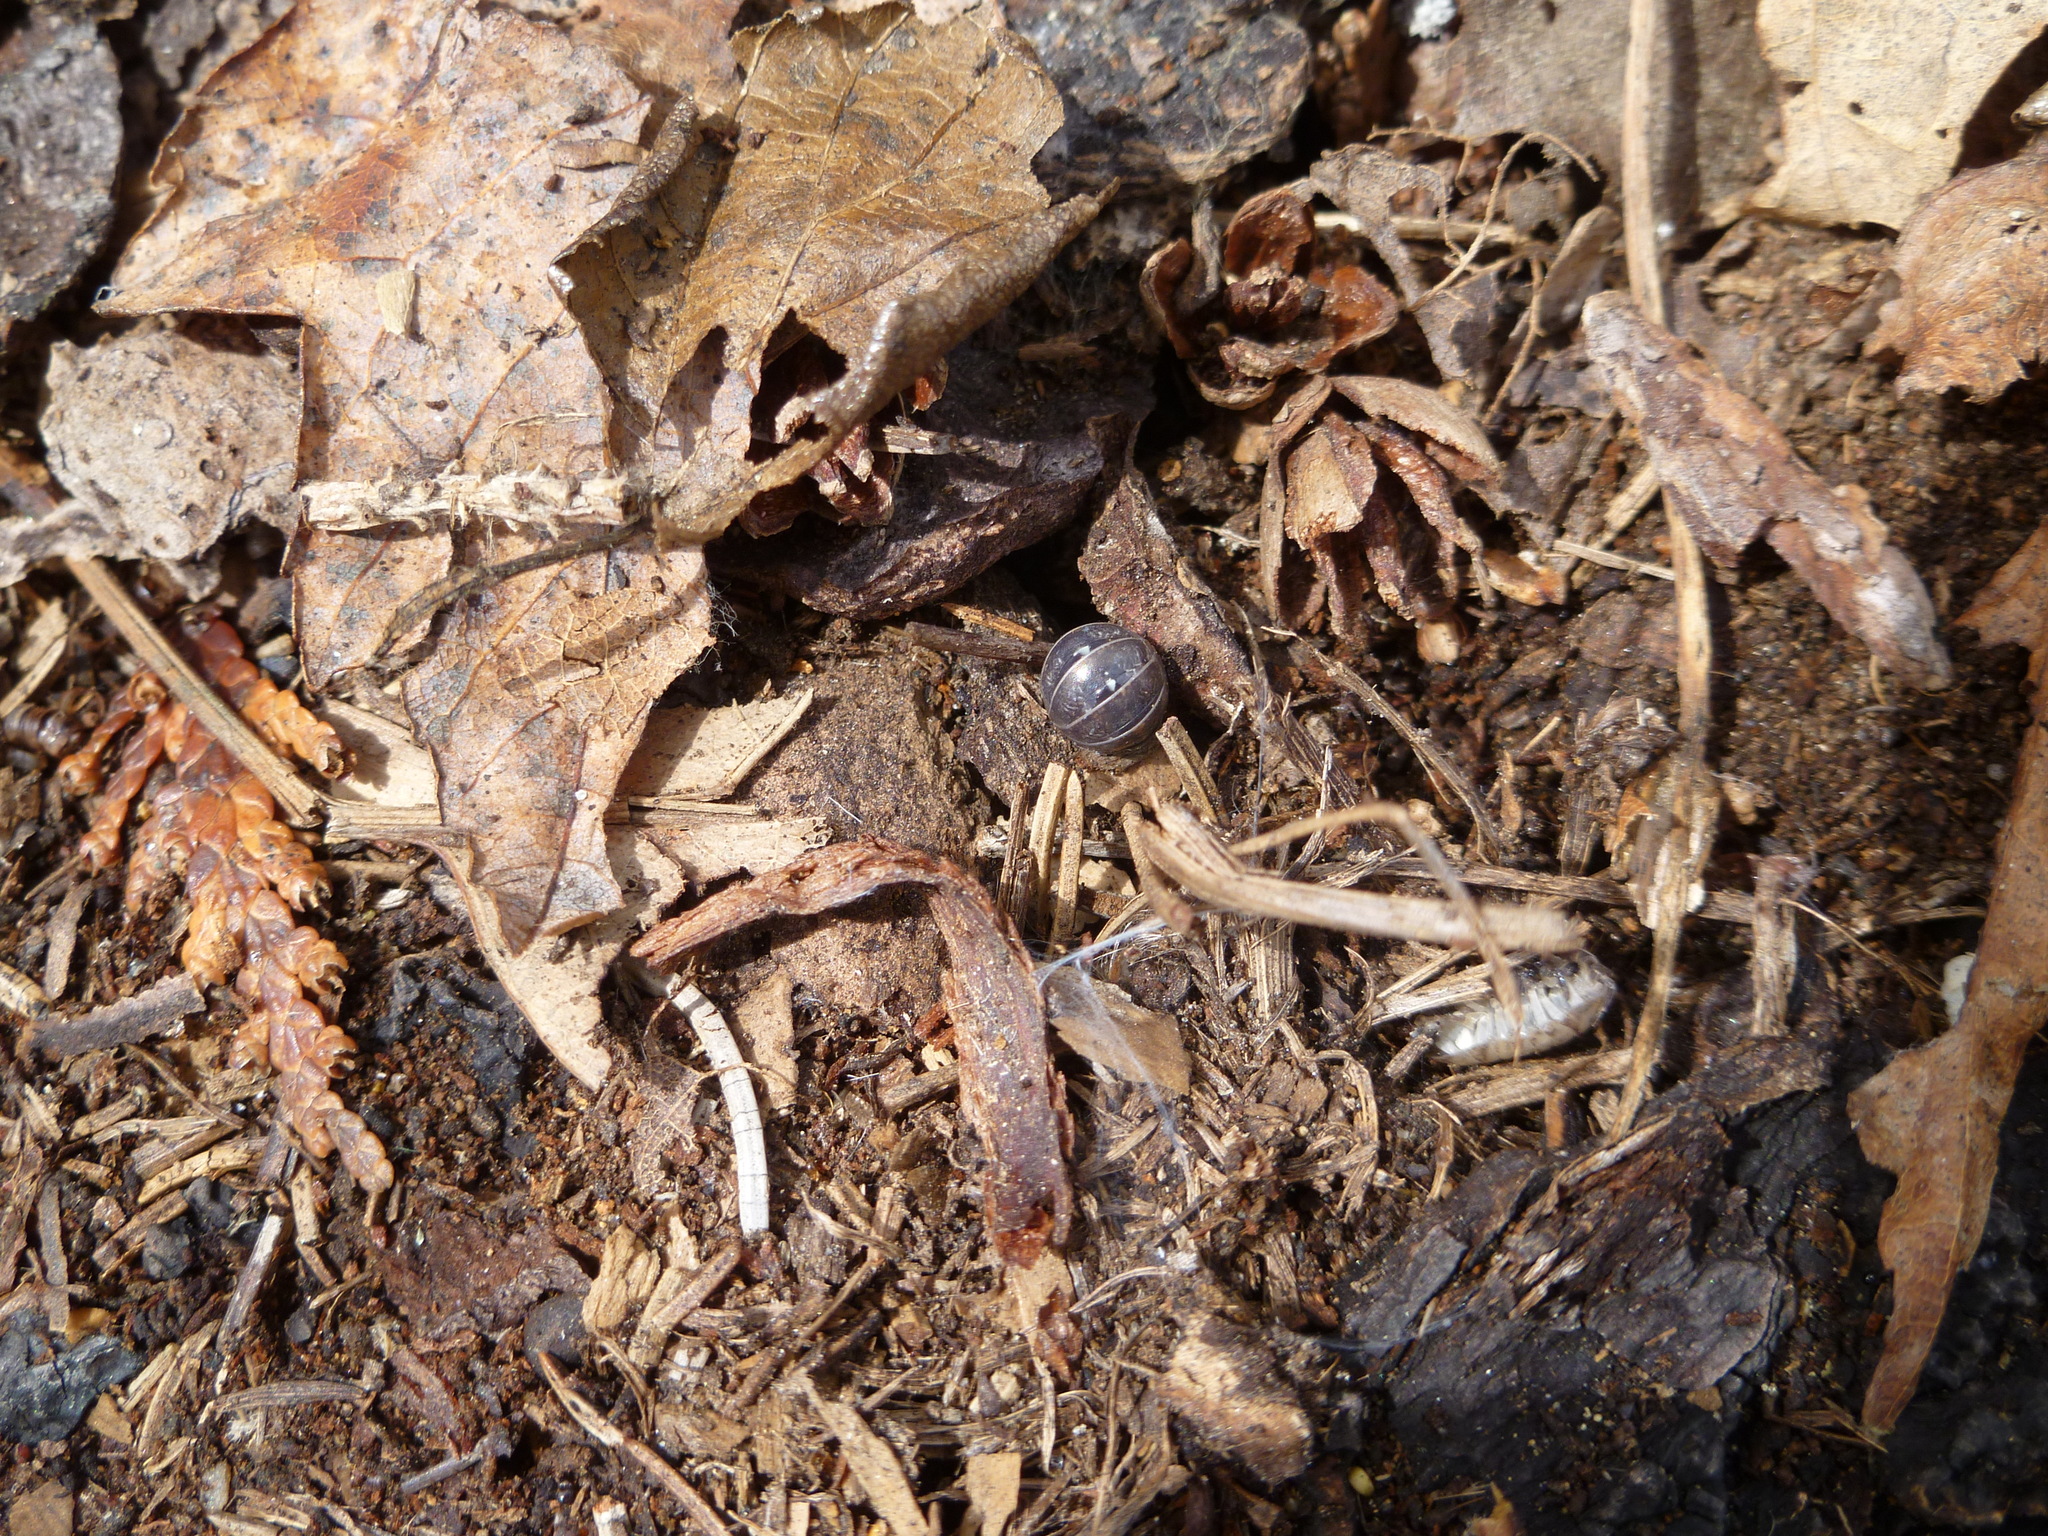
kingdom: Animalia
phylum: Arthropoda
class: Malacostraca
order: Isopoda
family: Armadillidiidae
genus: Armadillidium
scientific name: Armadillidium vulgare
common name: Common pill woodlouse
